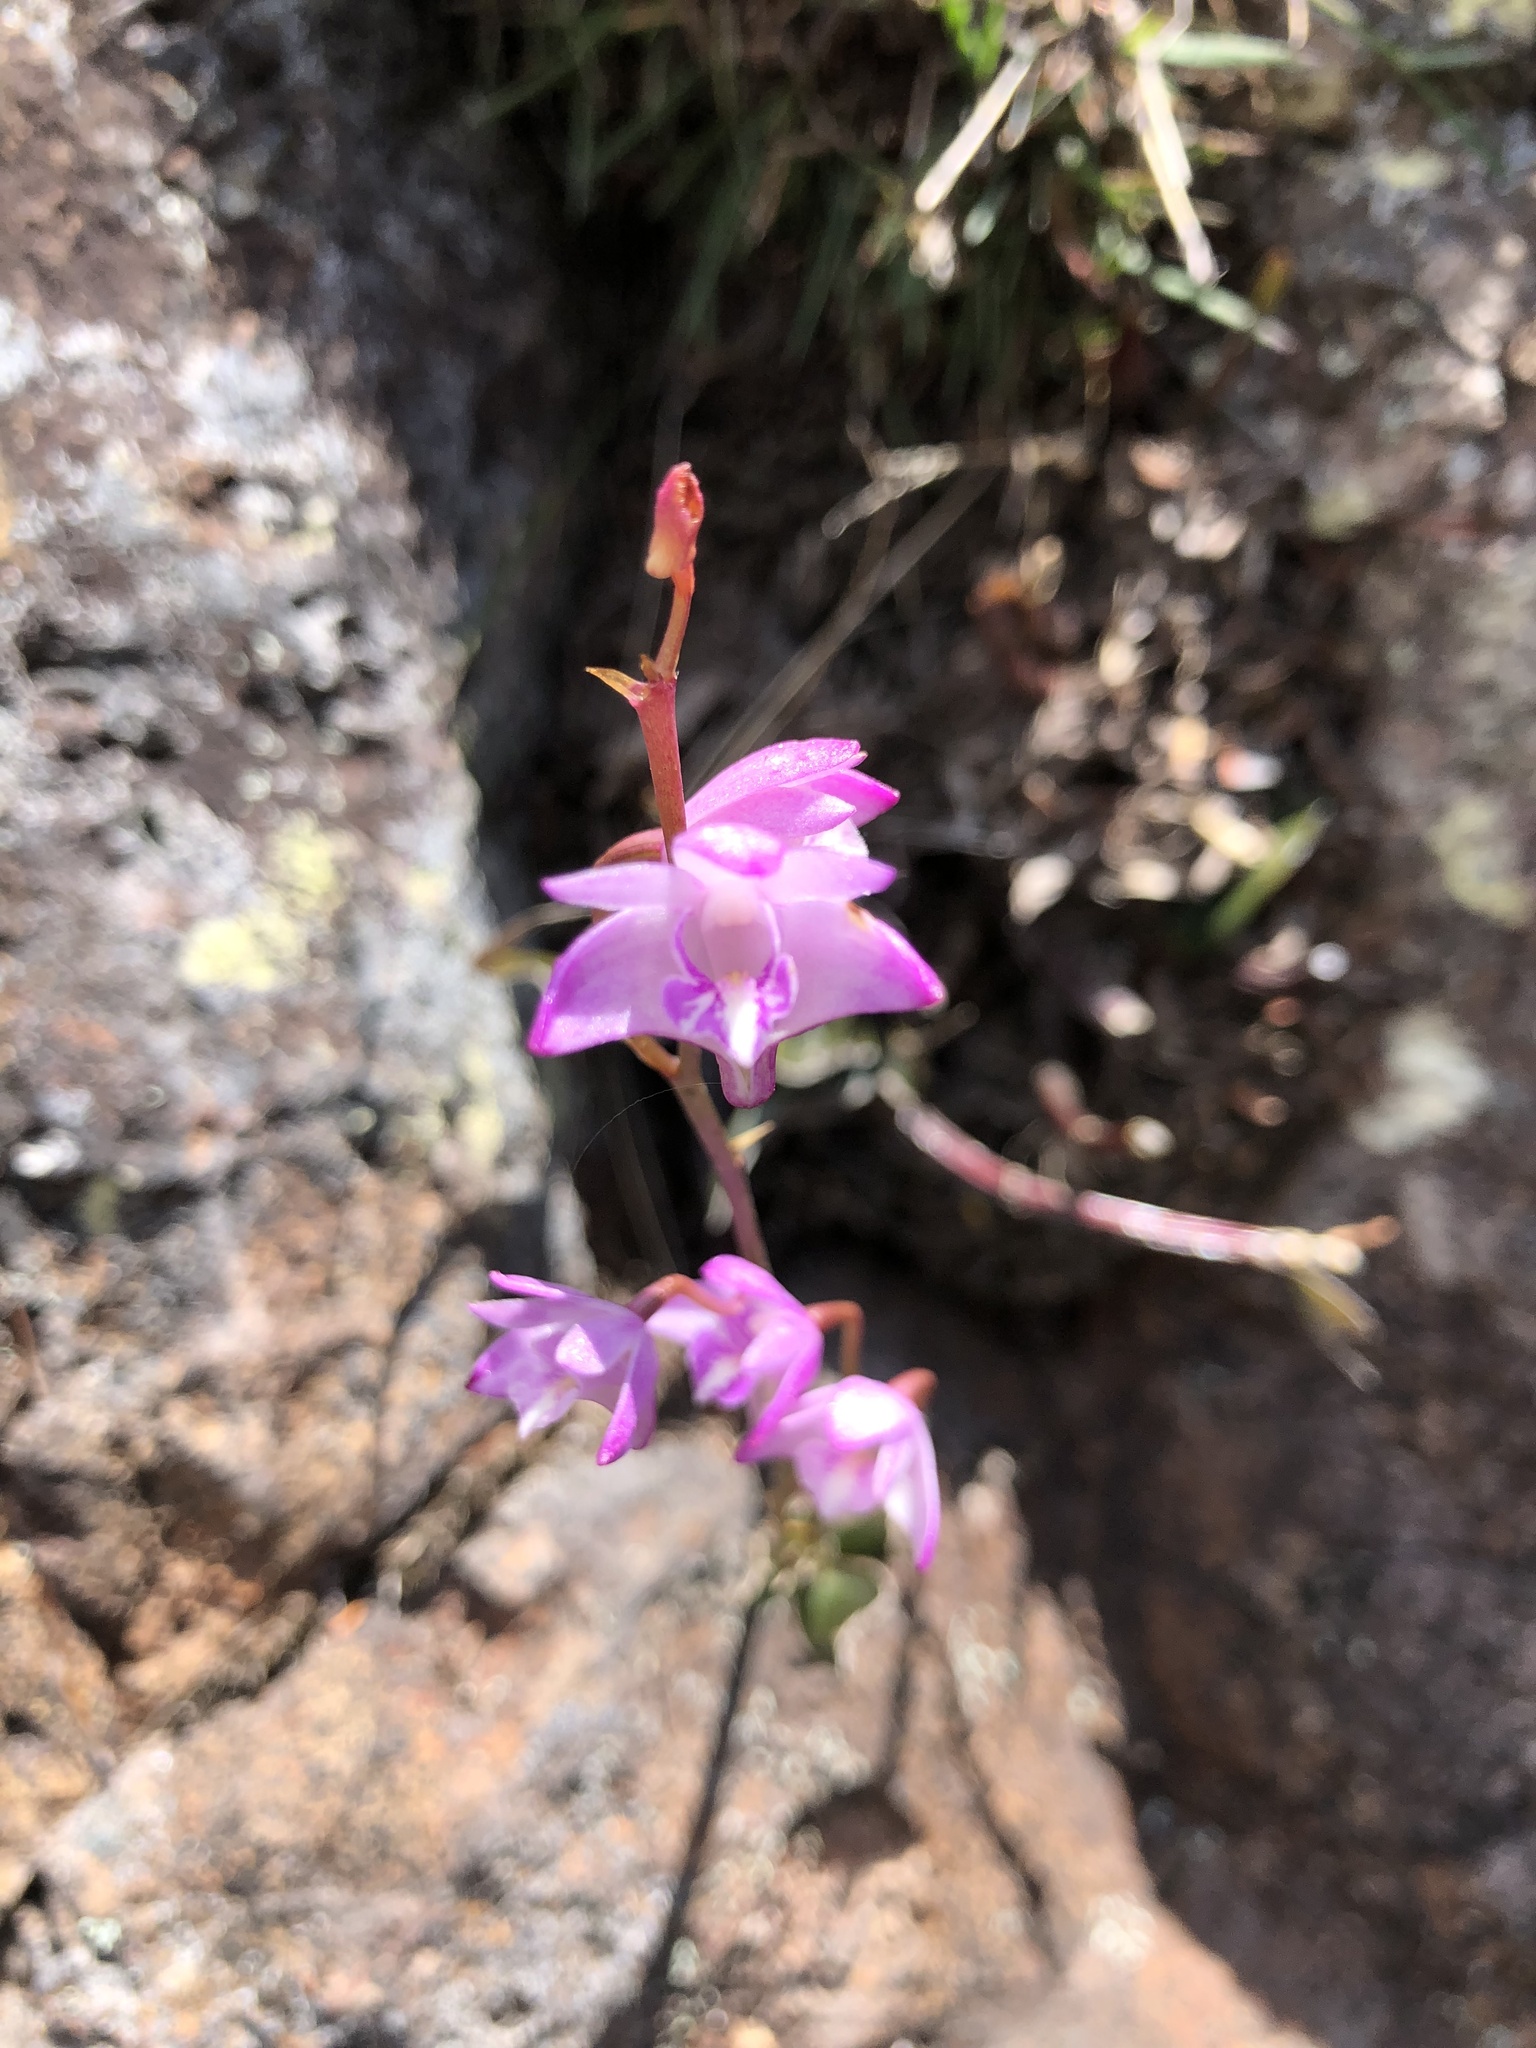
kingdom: Plantae
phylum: Tracheophyta
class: Liliopsida
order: Asparagales
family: Orchidaceae
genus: Dendrobium
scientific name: Dendrobium kingianum
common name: Pink rock orchid
